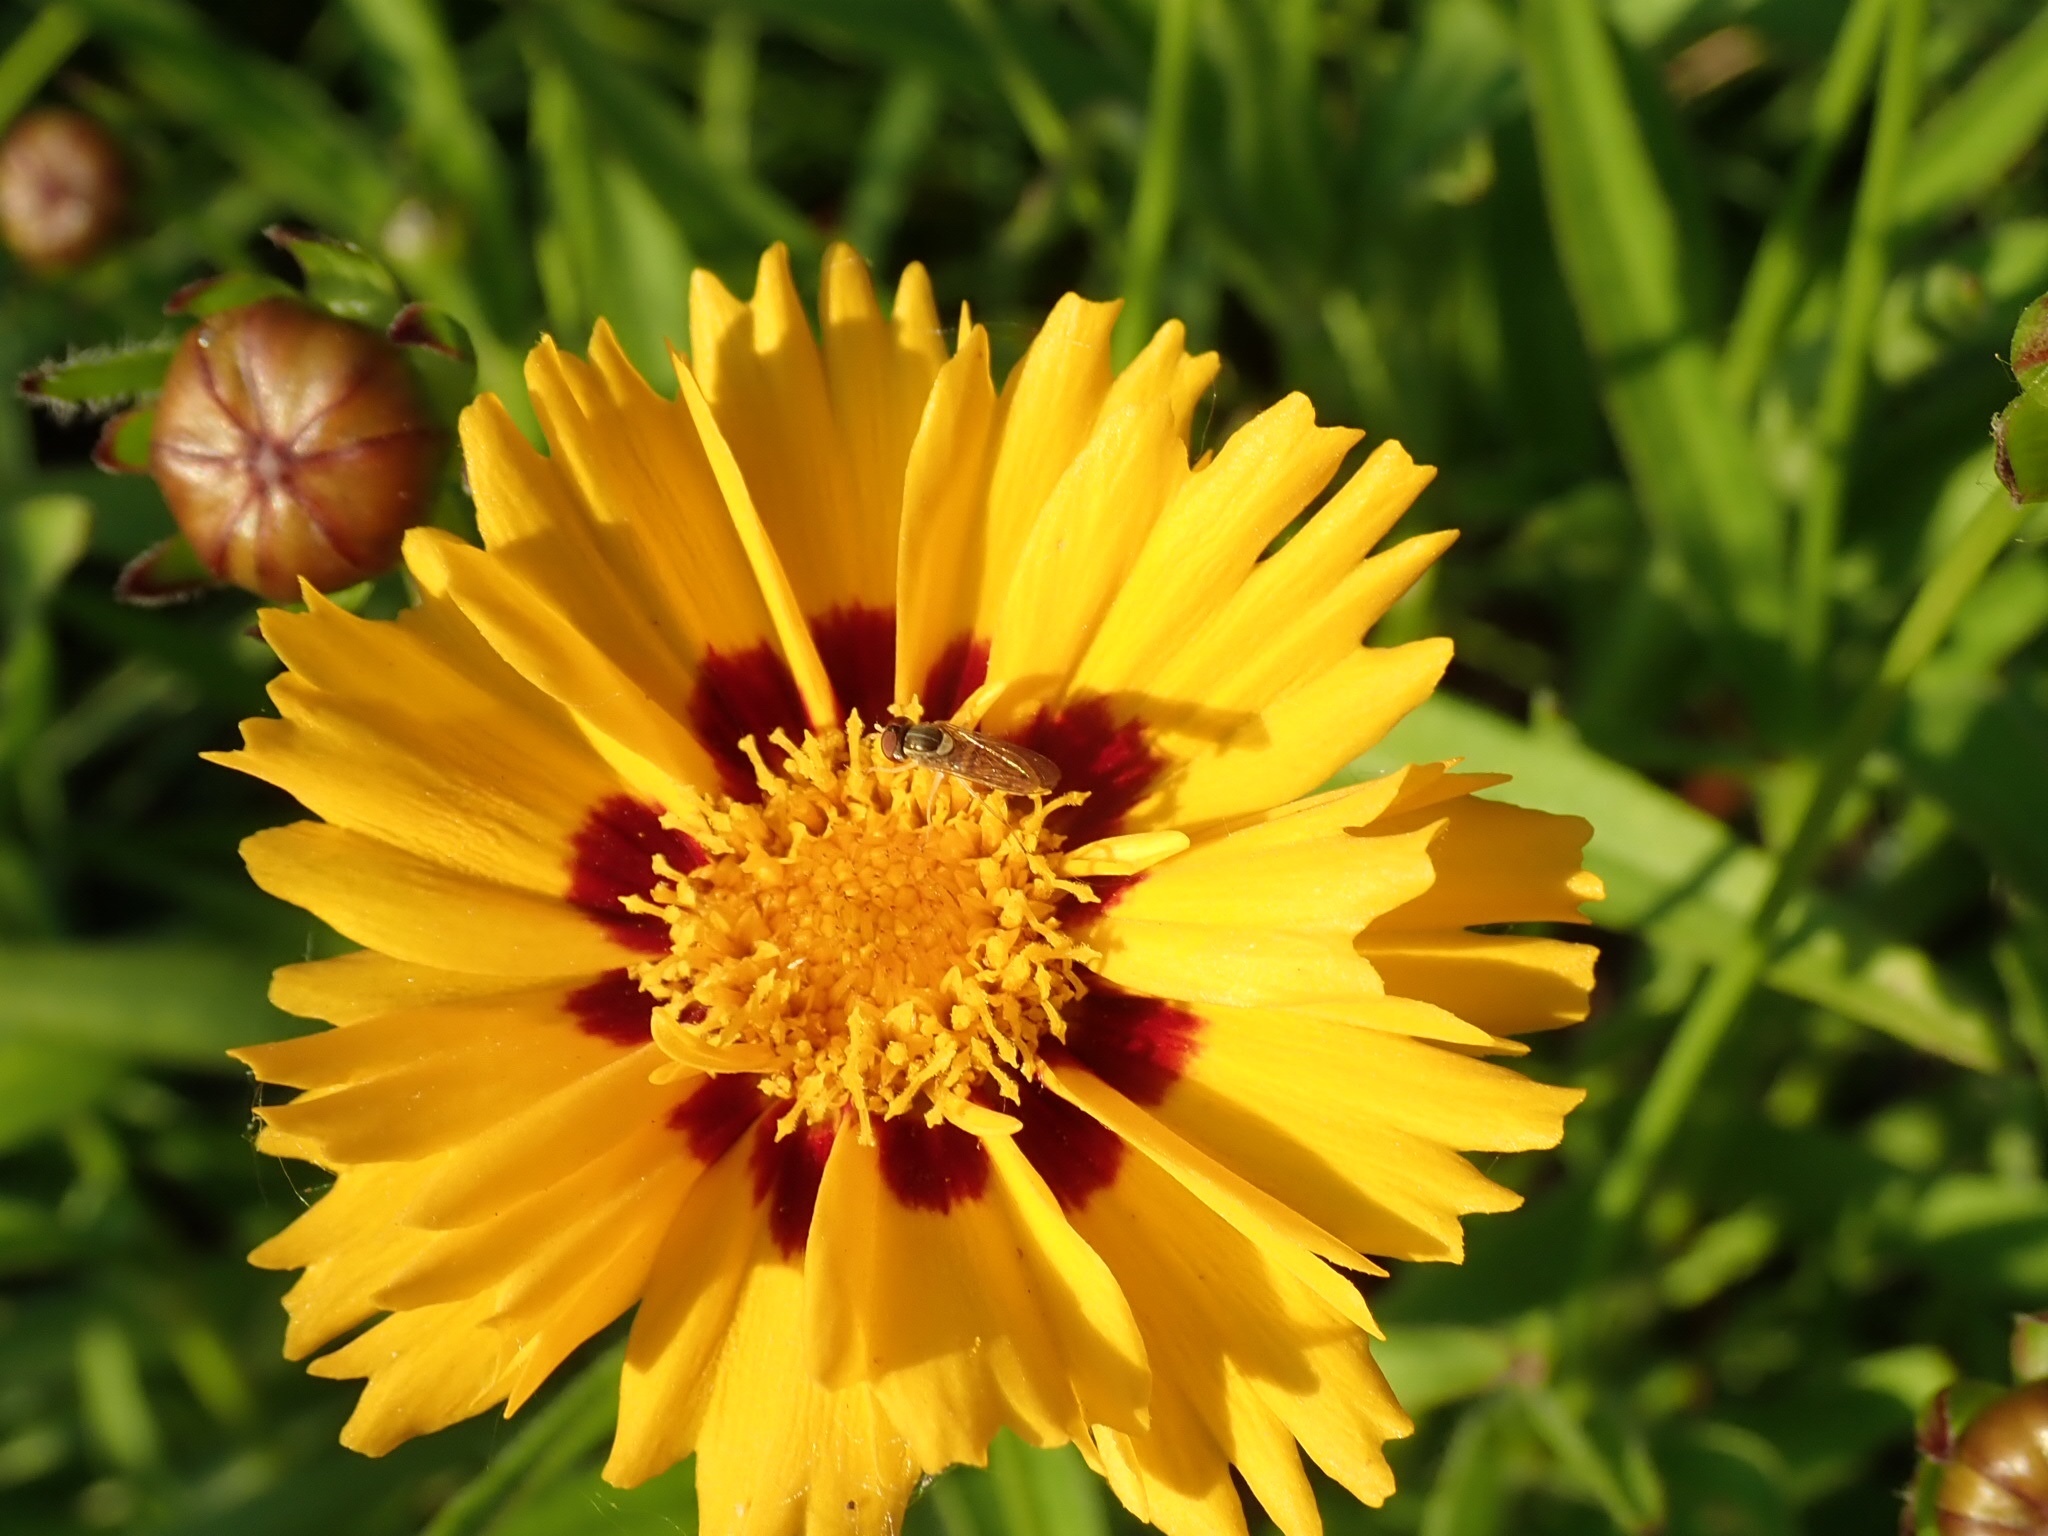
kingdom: Animalia
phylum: Arthropoda
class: Insecta
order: Diptera
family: Syrphidae
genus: Toxomerus
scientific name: Toxomerus marginatus
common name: Syrphid fly
